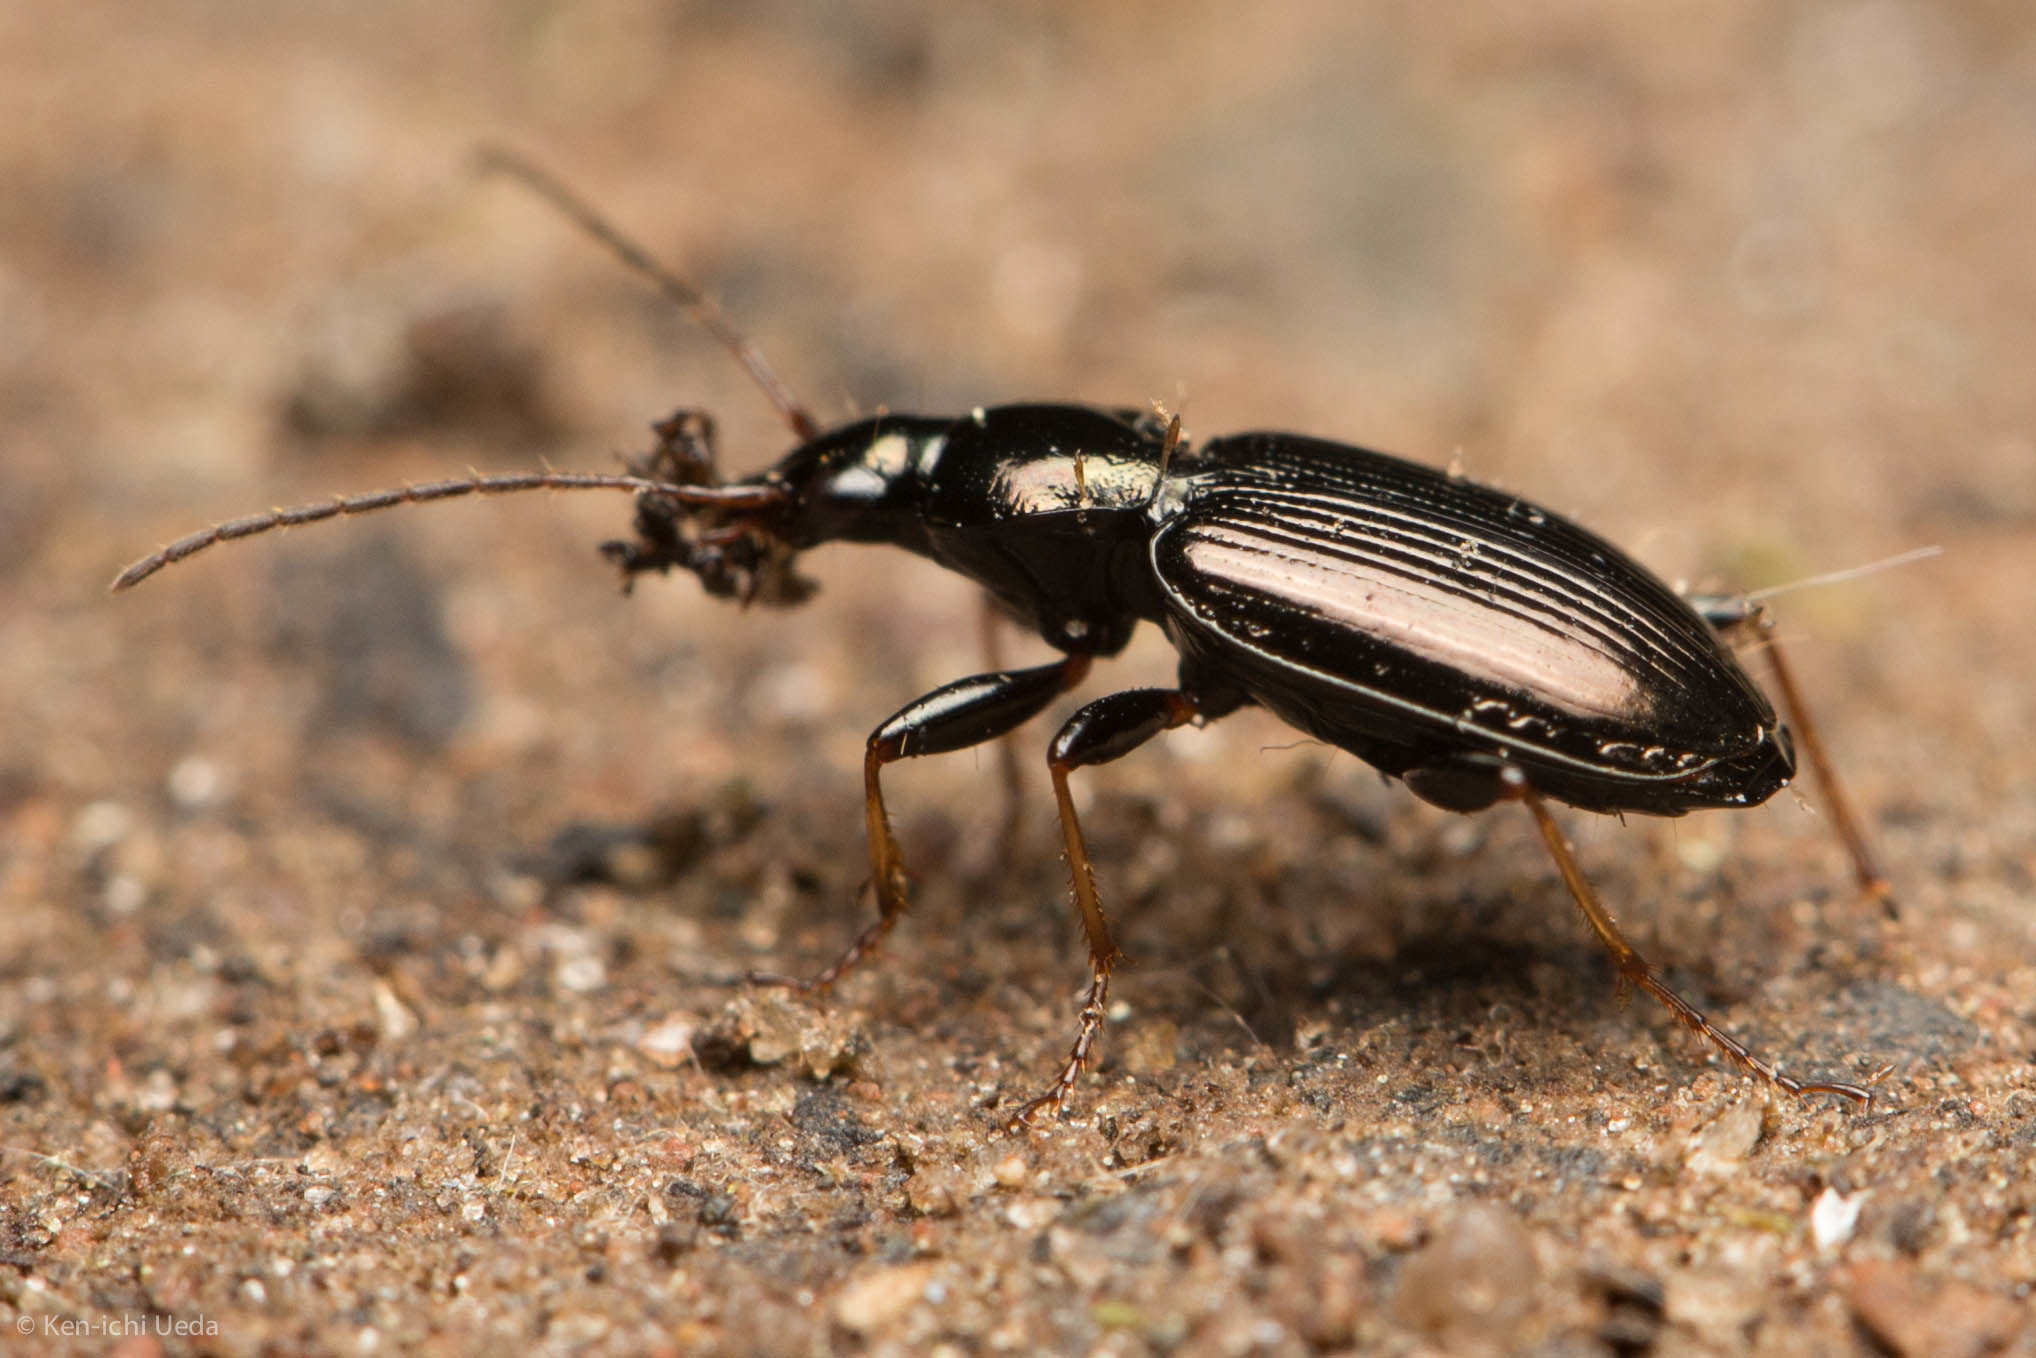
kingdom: Animalia
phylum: Arthropoda
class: Insecta
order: Coleoptera
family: Carabidae
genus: Agonum
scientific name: Agonum ferreum
